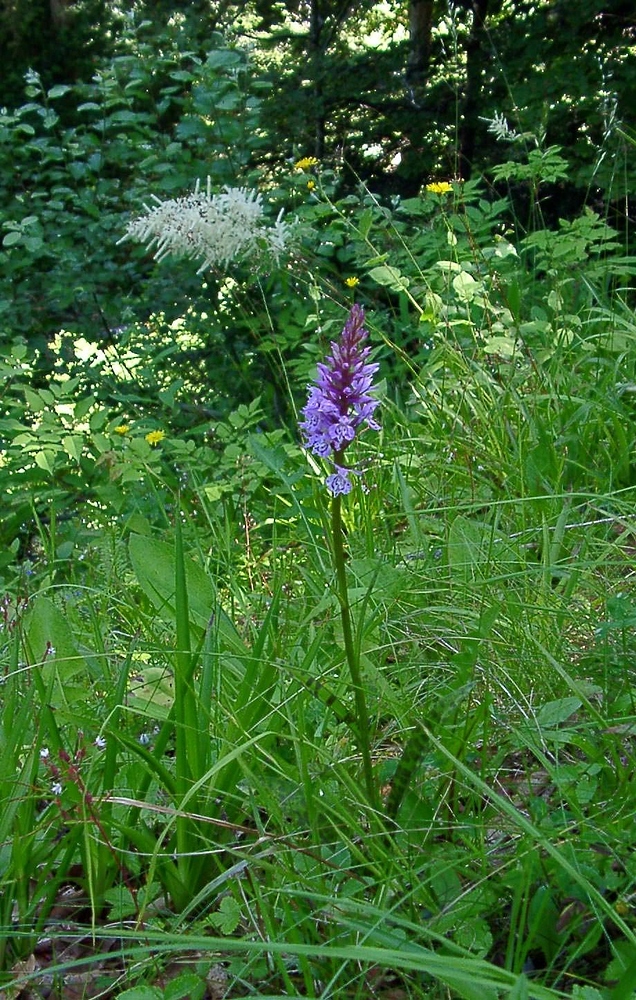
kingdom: Plantae
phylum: Tracheophyta
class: Liliopsida
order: Asparagales
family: Orchidaceae
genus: Dactylorhiza
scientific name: Dactylorhiza maculata
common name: Heath spotted-orchid
